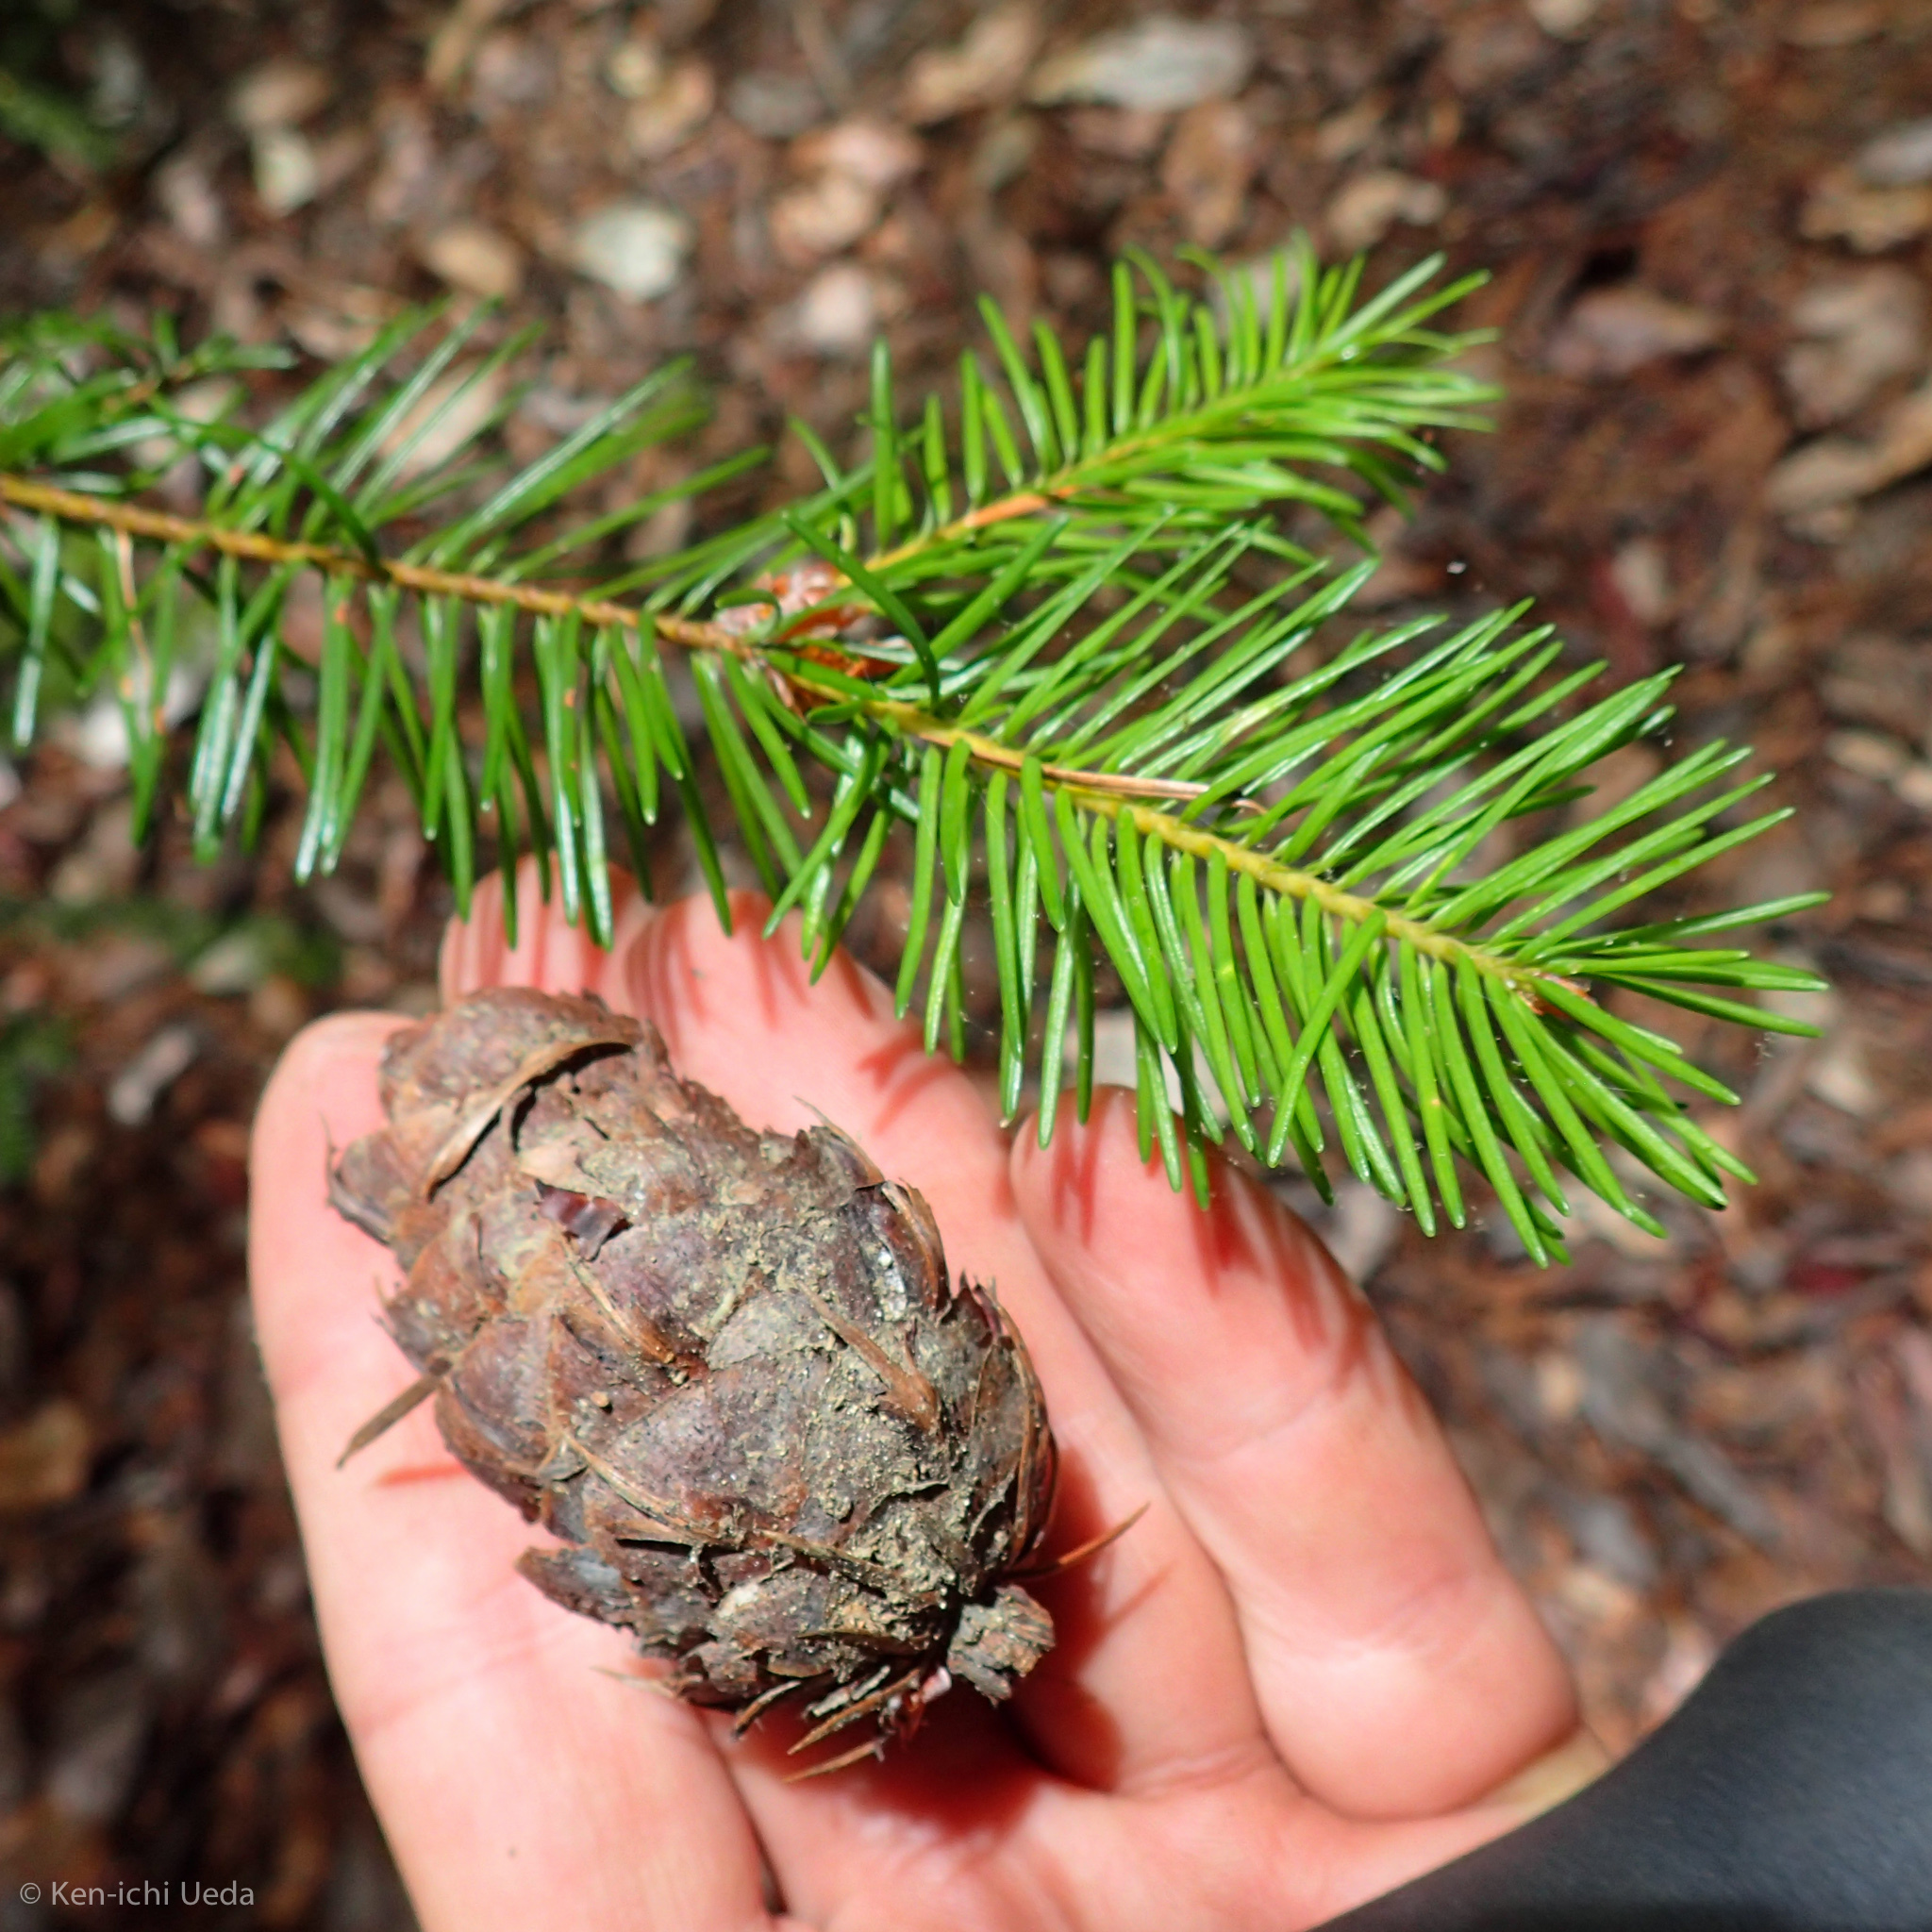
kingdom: Plantae
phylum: Tracheophyta
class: Pinopsida
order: Pinales
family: Pinaceae
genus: Pseudotsuga
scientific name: Pseudotsuga menziesii
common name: Douglas fir
